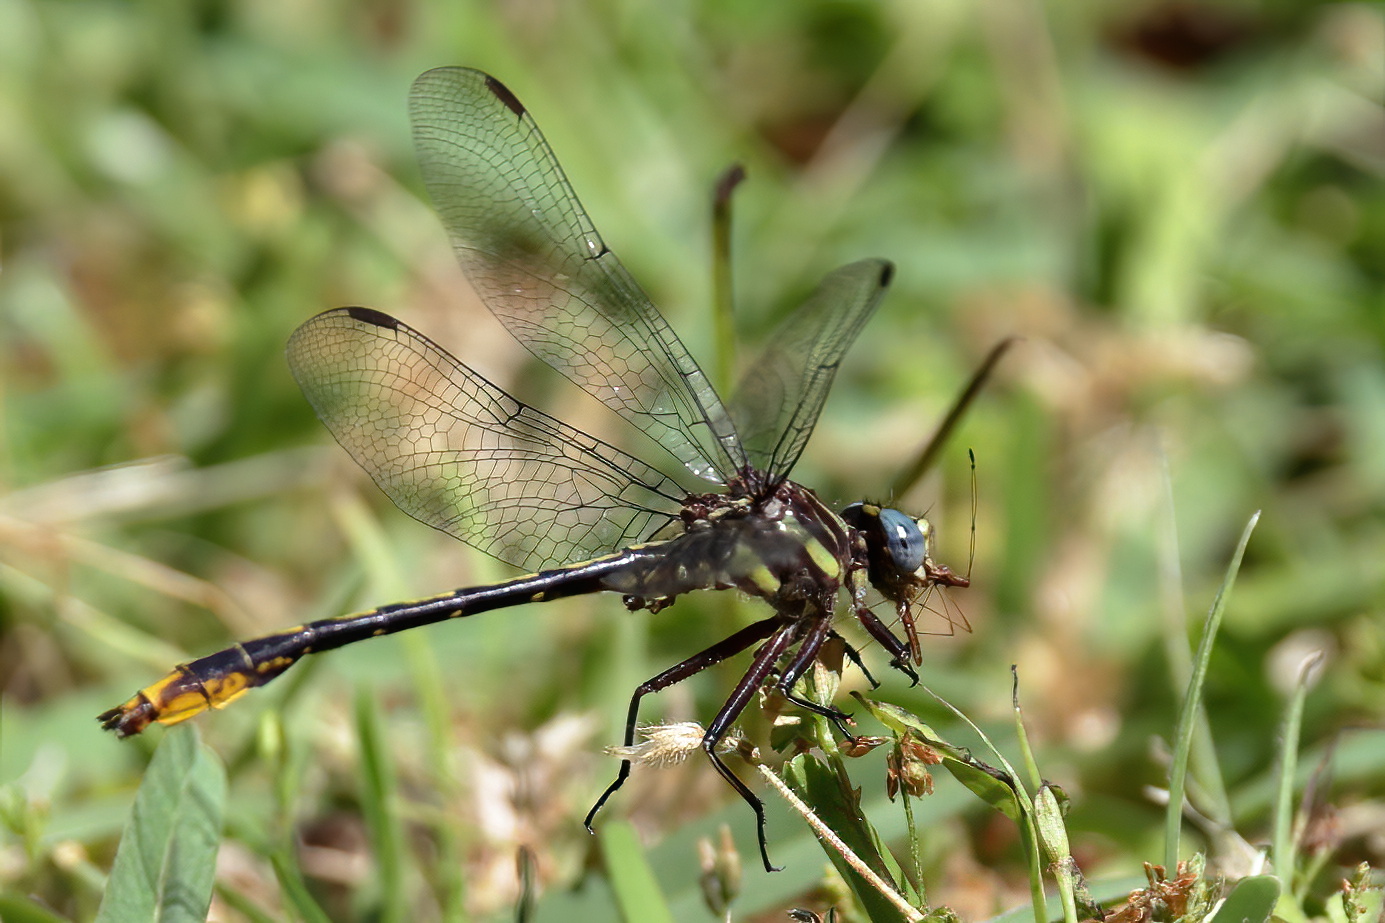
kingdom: Animalia
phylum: Arthropoda
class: Insecta
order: Odonata
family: Gomphidae
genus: Phanogomphus
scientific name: Phanogomphus exilis
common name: Lancet clubtail
